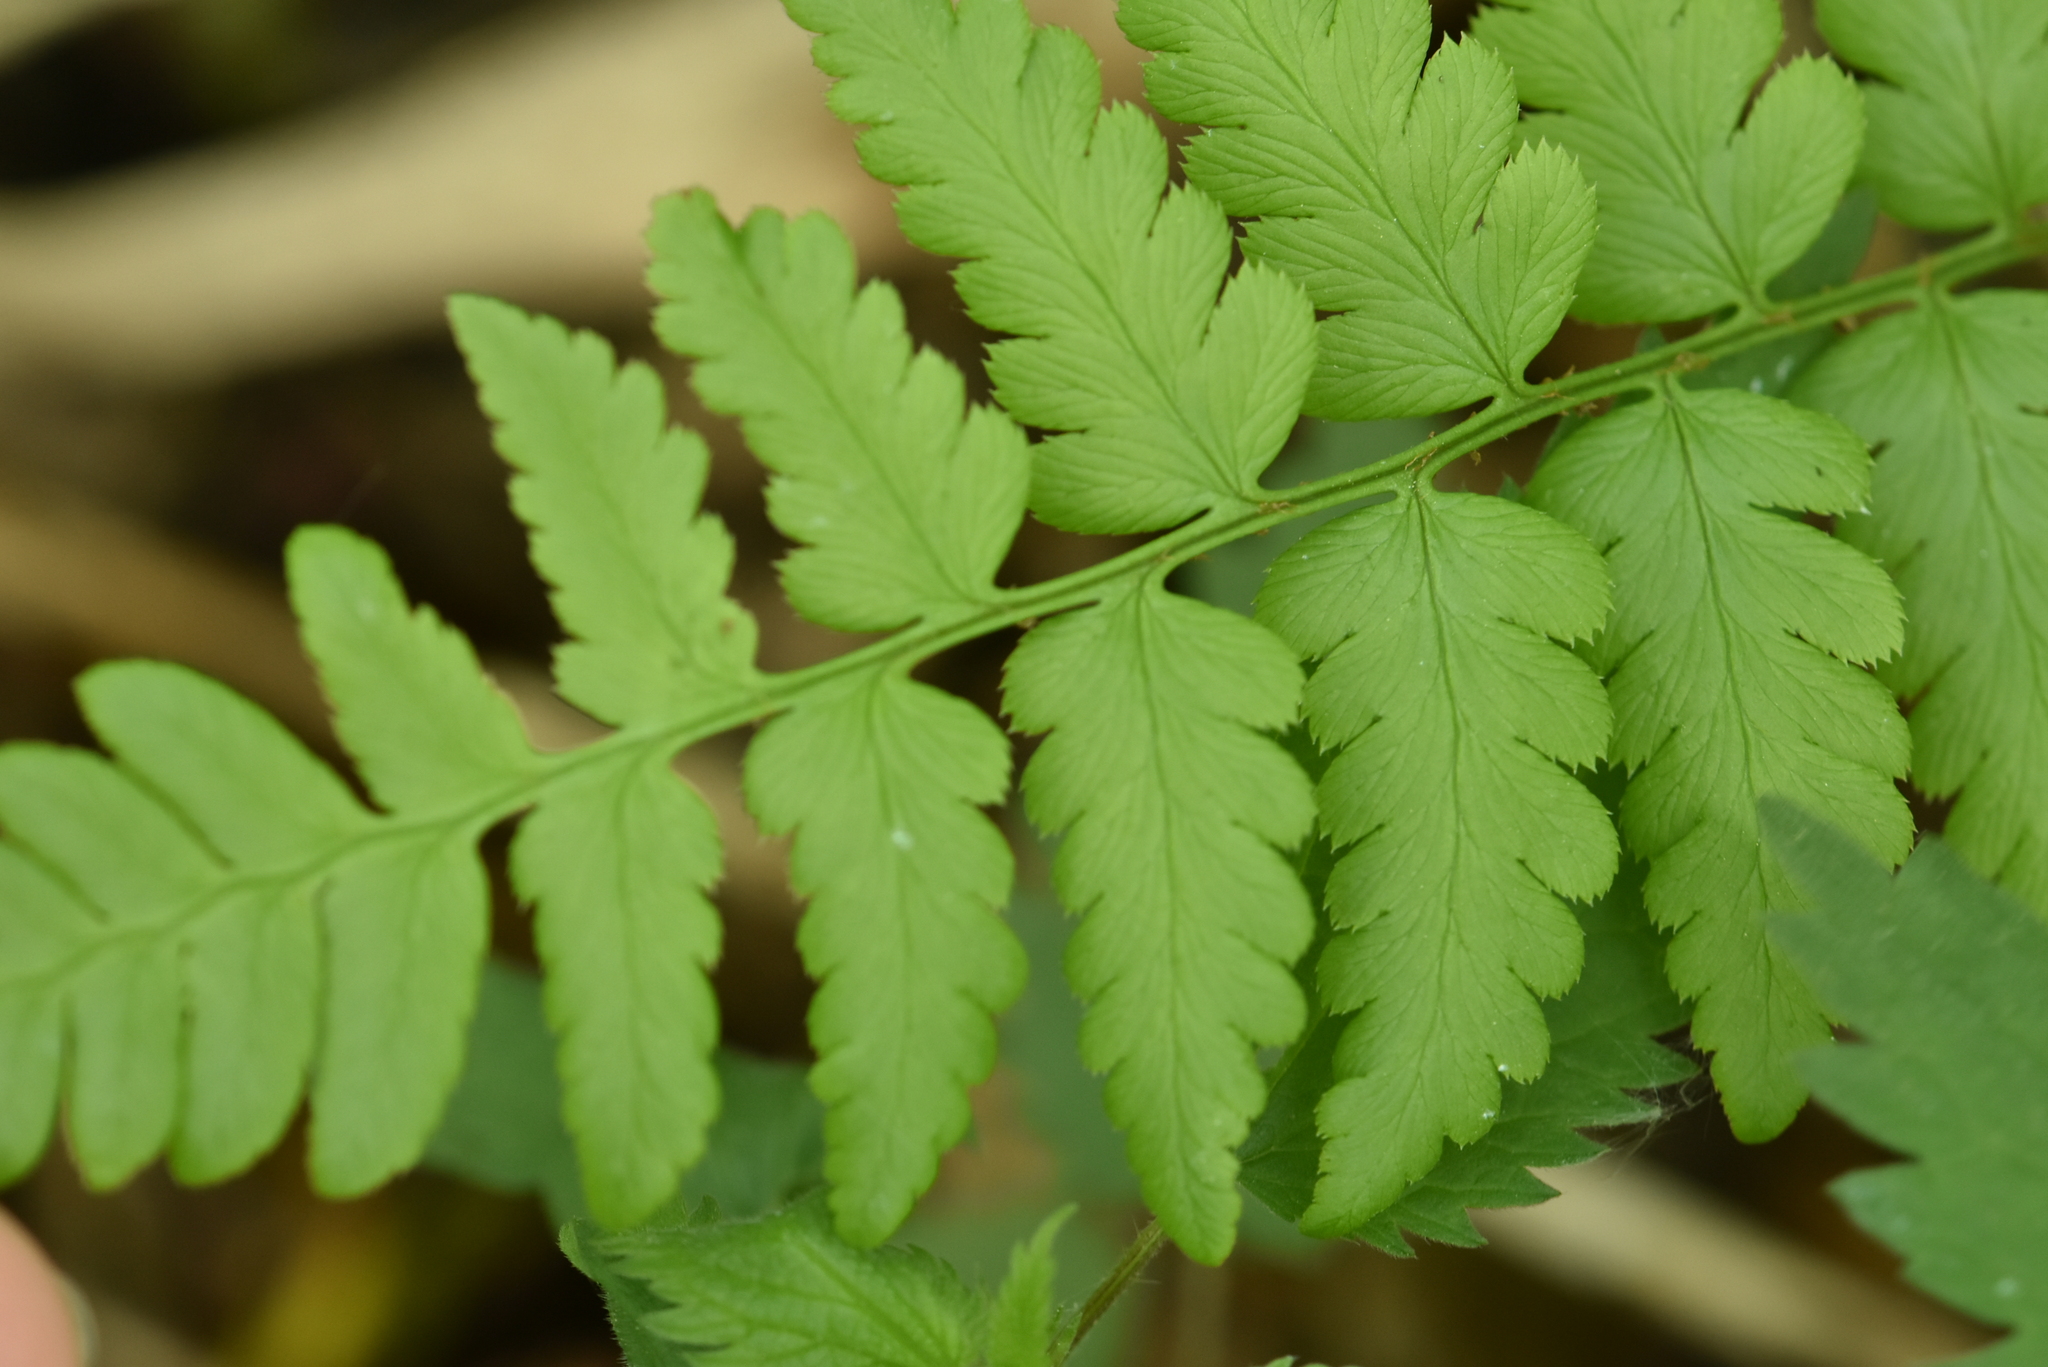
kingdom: Plantae
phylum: Tracheophyta
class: Polypodiopsida
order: Polypodiales
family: Dryopteridaceae
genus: Dryopteris
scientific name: Dryopteris cristata
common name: Crested wood fern
